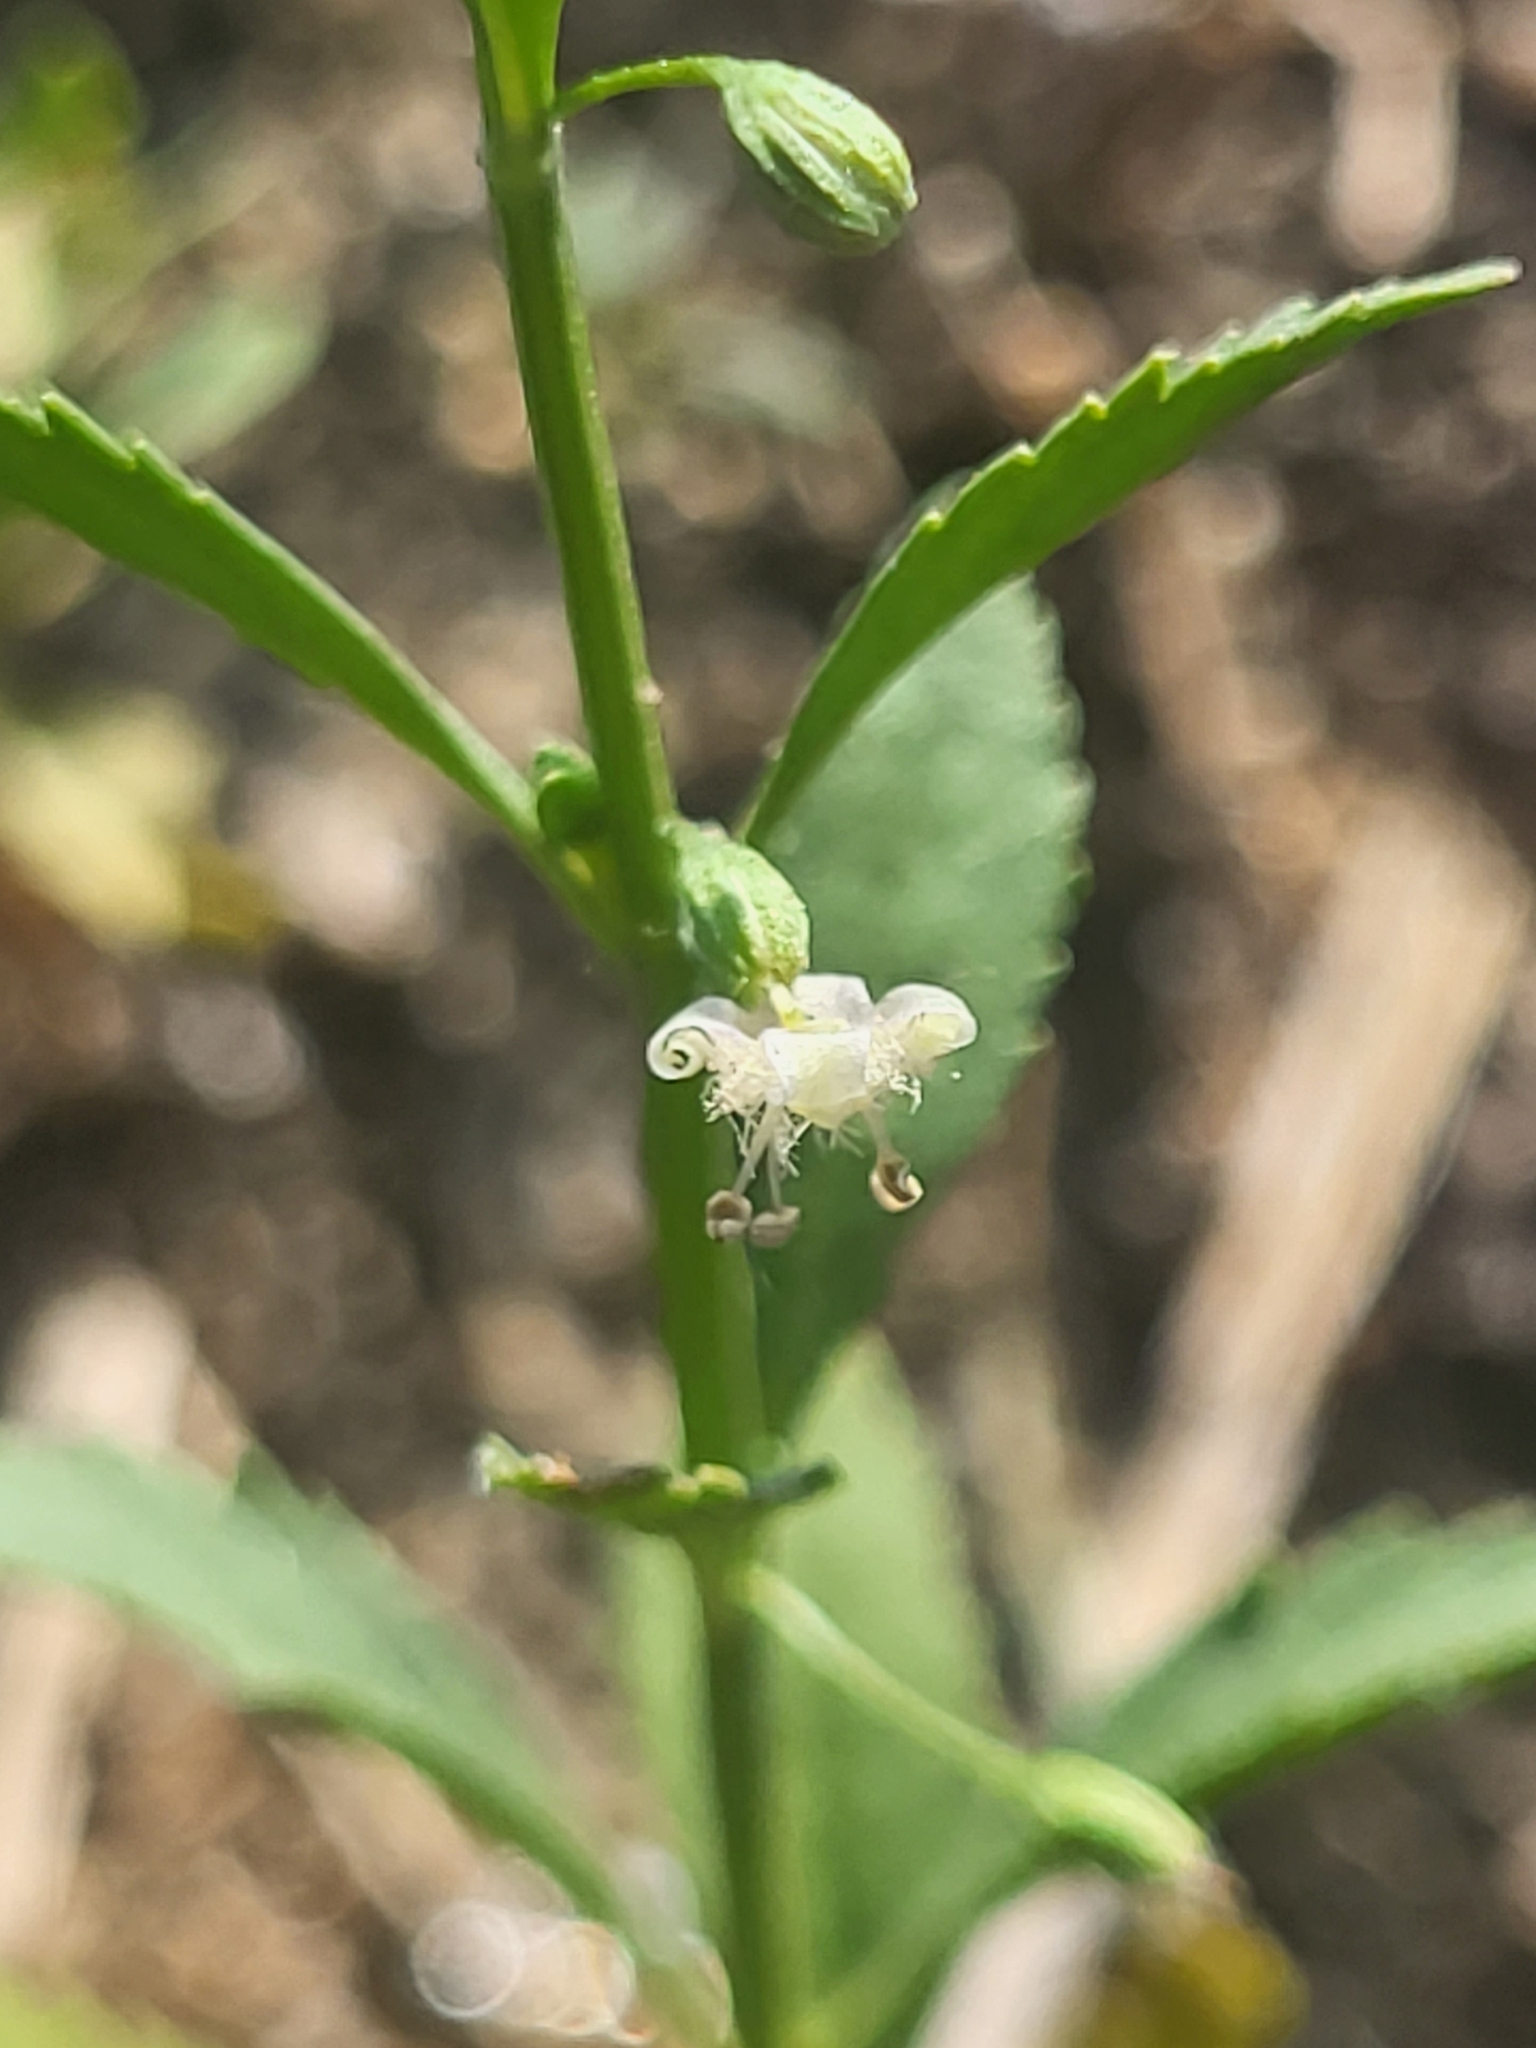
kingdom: Plantae
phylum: Tracheophyta
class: Magnoliopsida
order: Lamiales
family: Plantaginaceae
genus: Scoparia
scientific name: Scoparia dulcis
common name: Scoparia-weed
